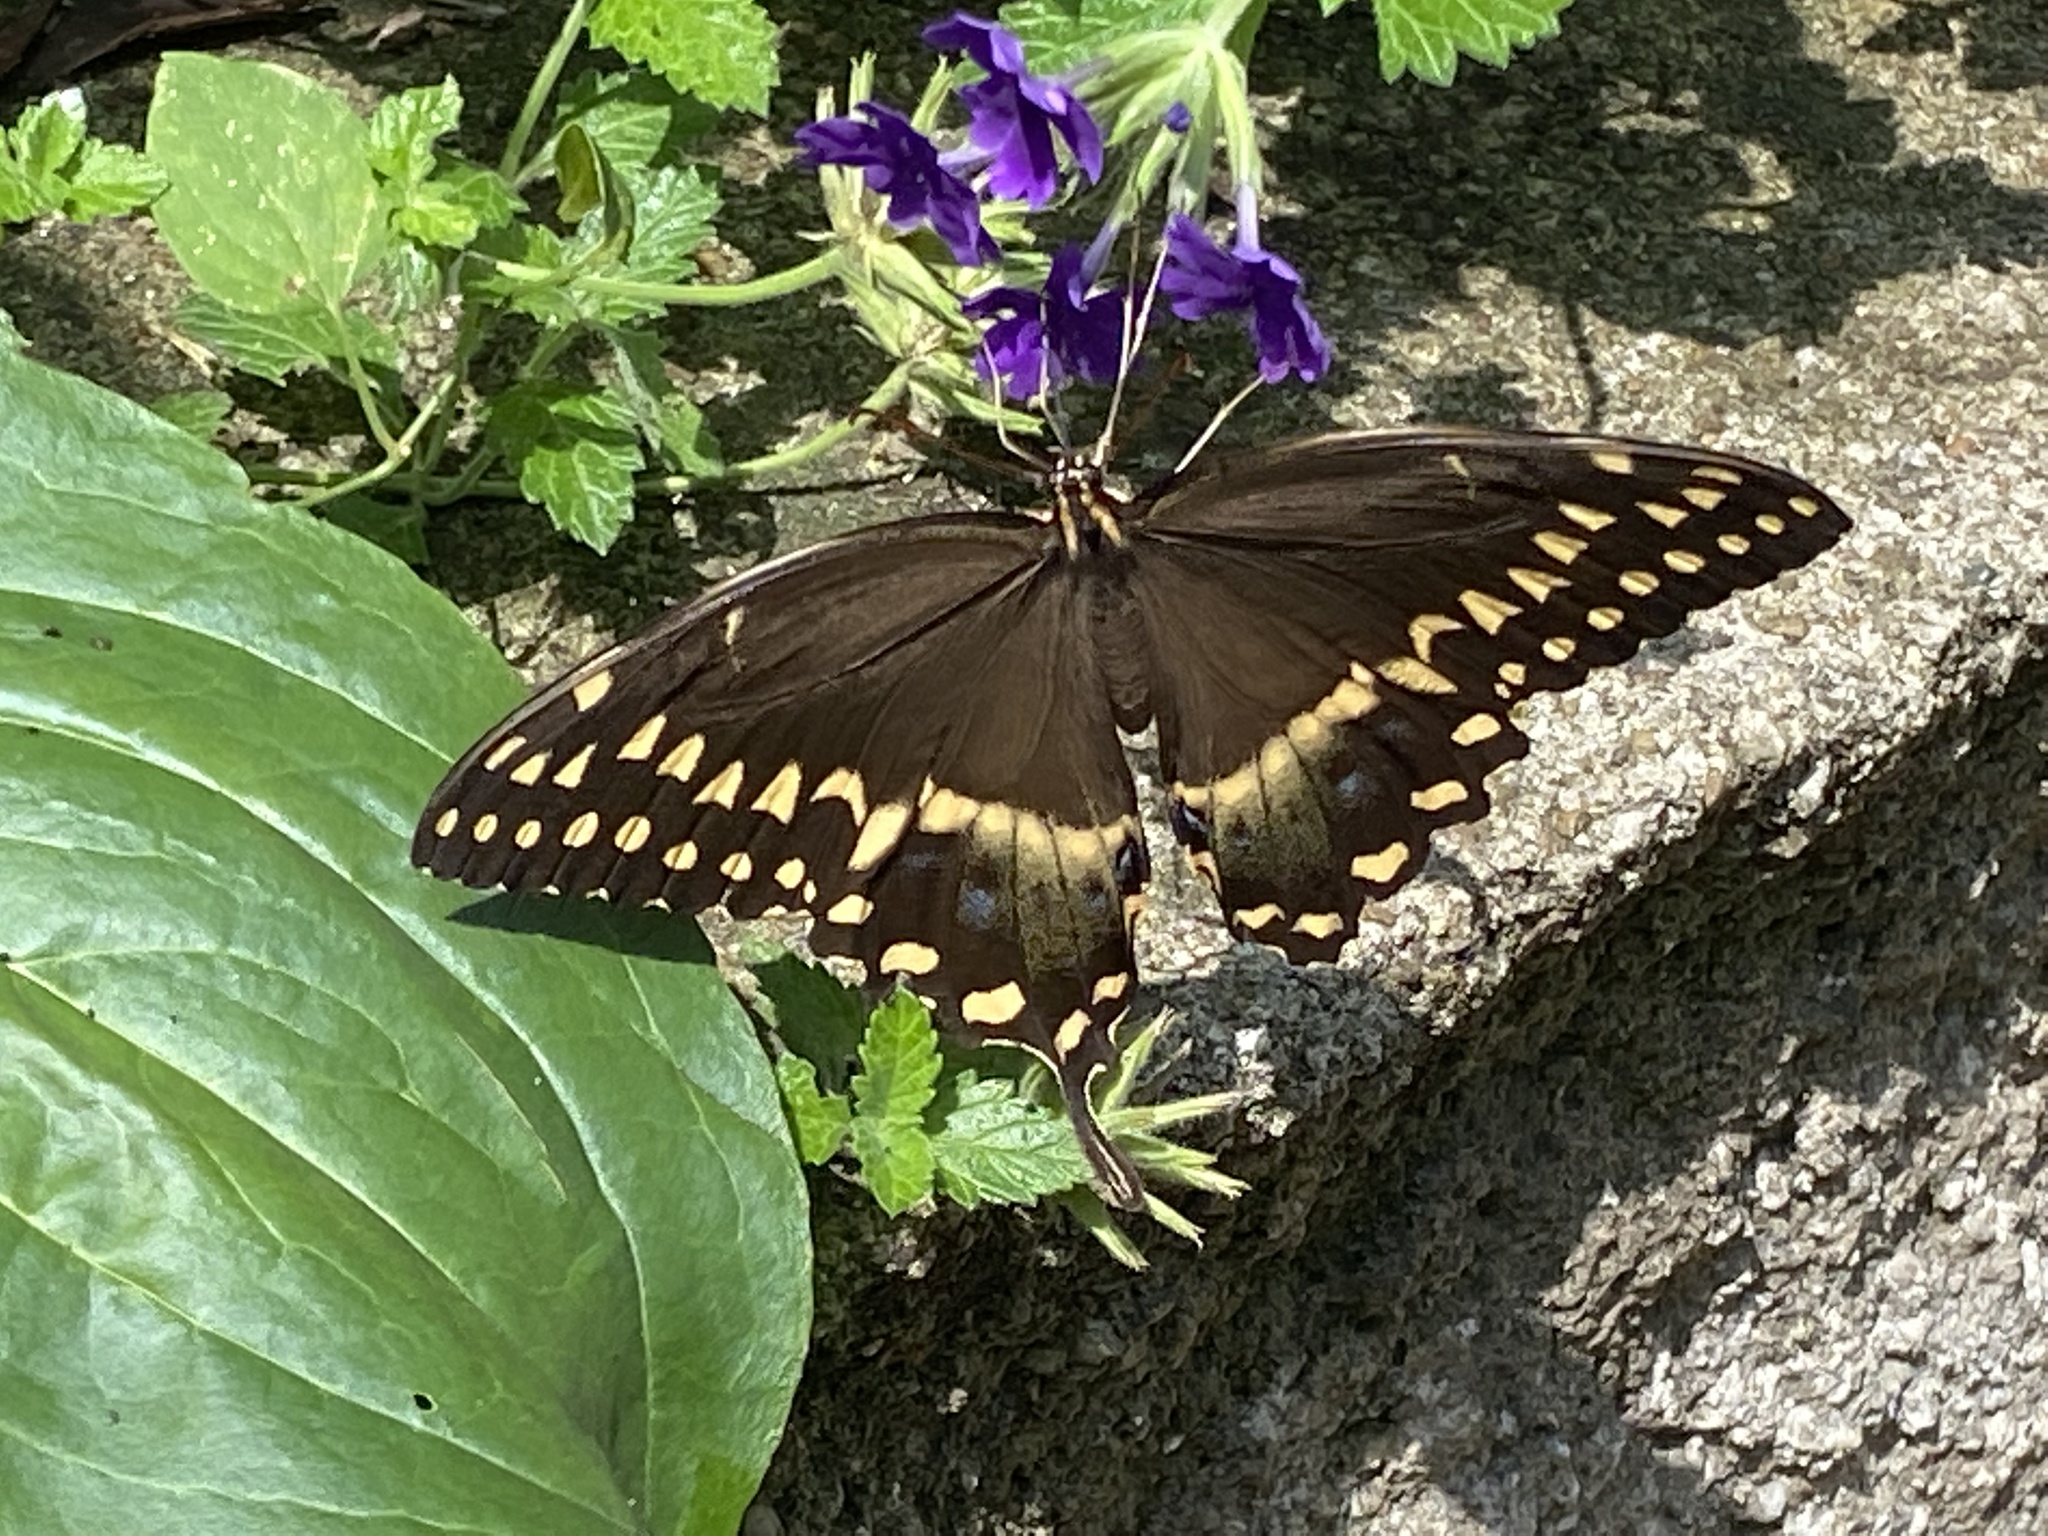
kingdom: Animalia
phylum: Arthropoda
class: Insecta
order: Lepidoptera
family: Papilionidae
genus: Papilio
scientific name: Papilio palamedes
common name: Palamedes swallowtail
